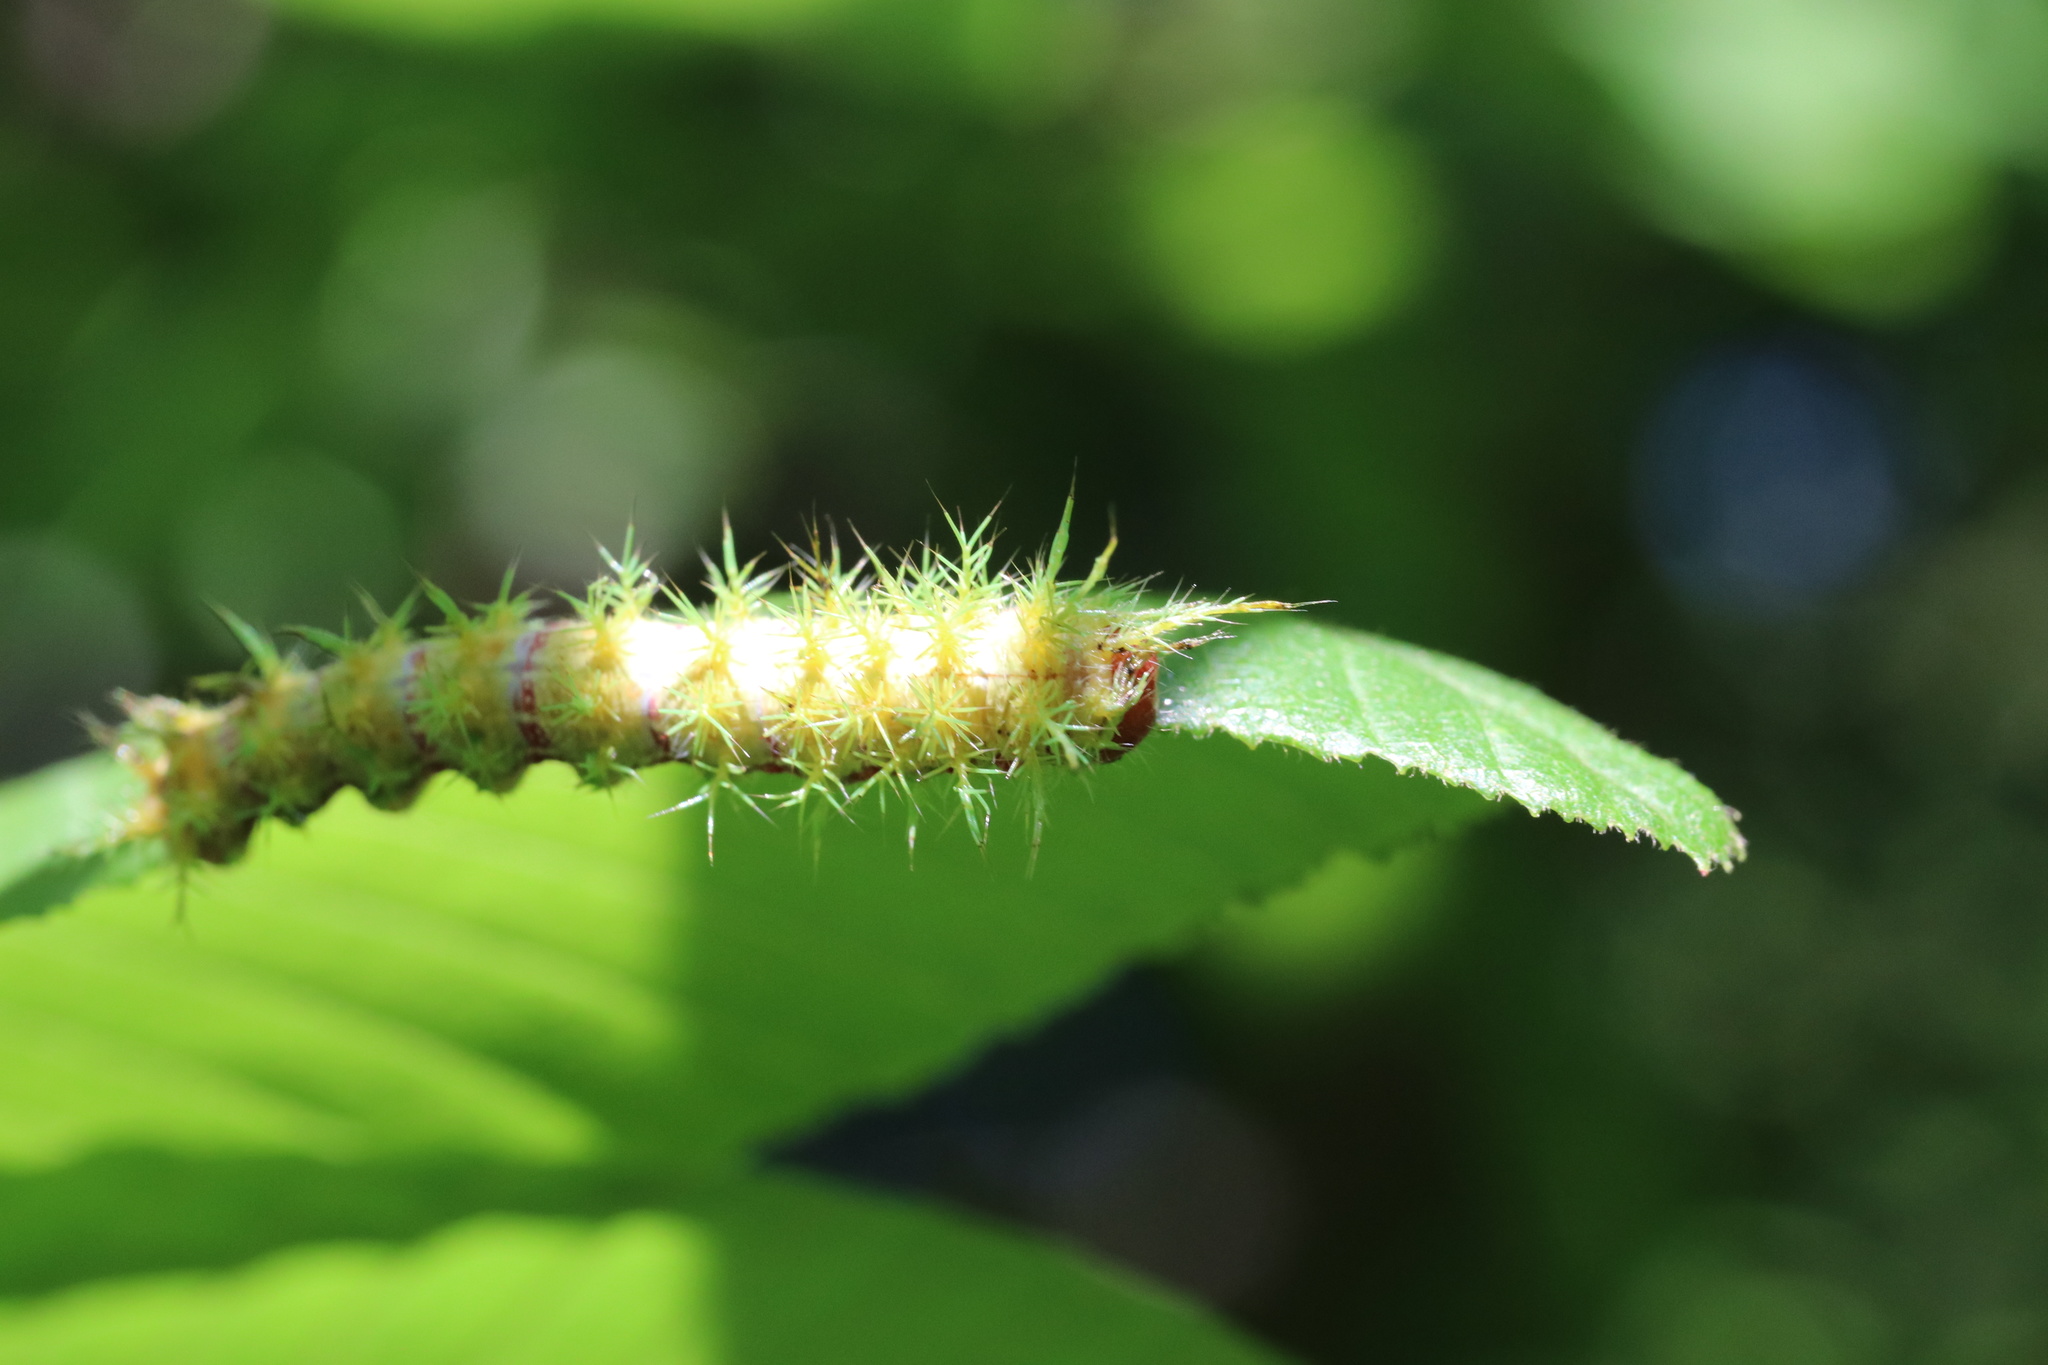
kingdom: Animalia
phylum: Arthropoda
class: Insecta
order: Lepidoptera
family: Saturniidae
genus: Ormiscodes
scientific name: Ormiscodes amphinome
